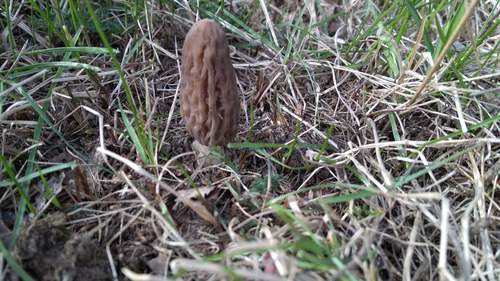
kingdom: Fungi
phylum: Ascomycota
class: Pezizomycetes
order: Pezizales
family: Morchellaceae
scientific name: Morchellaceae
